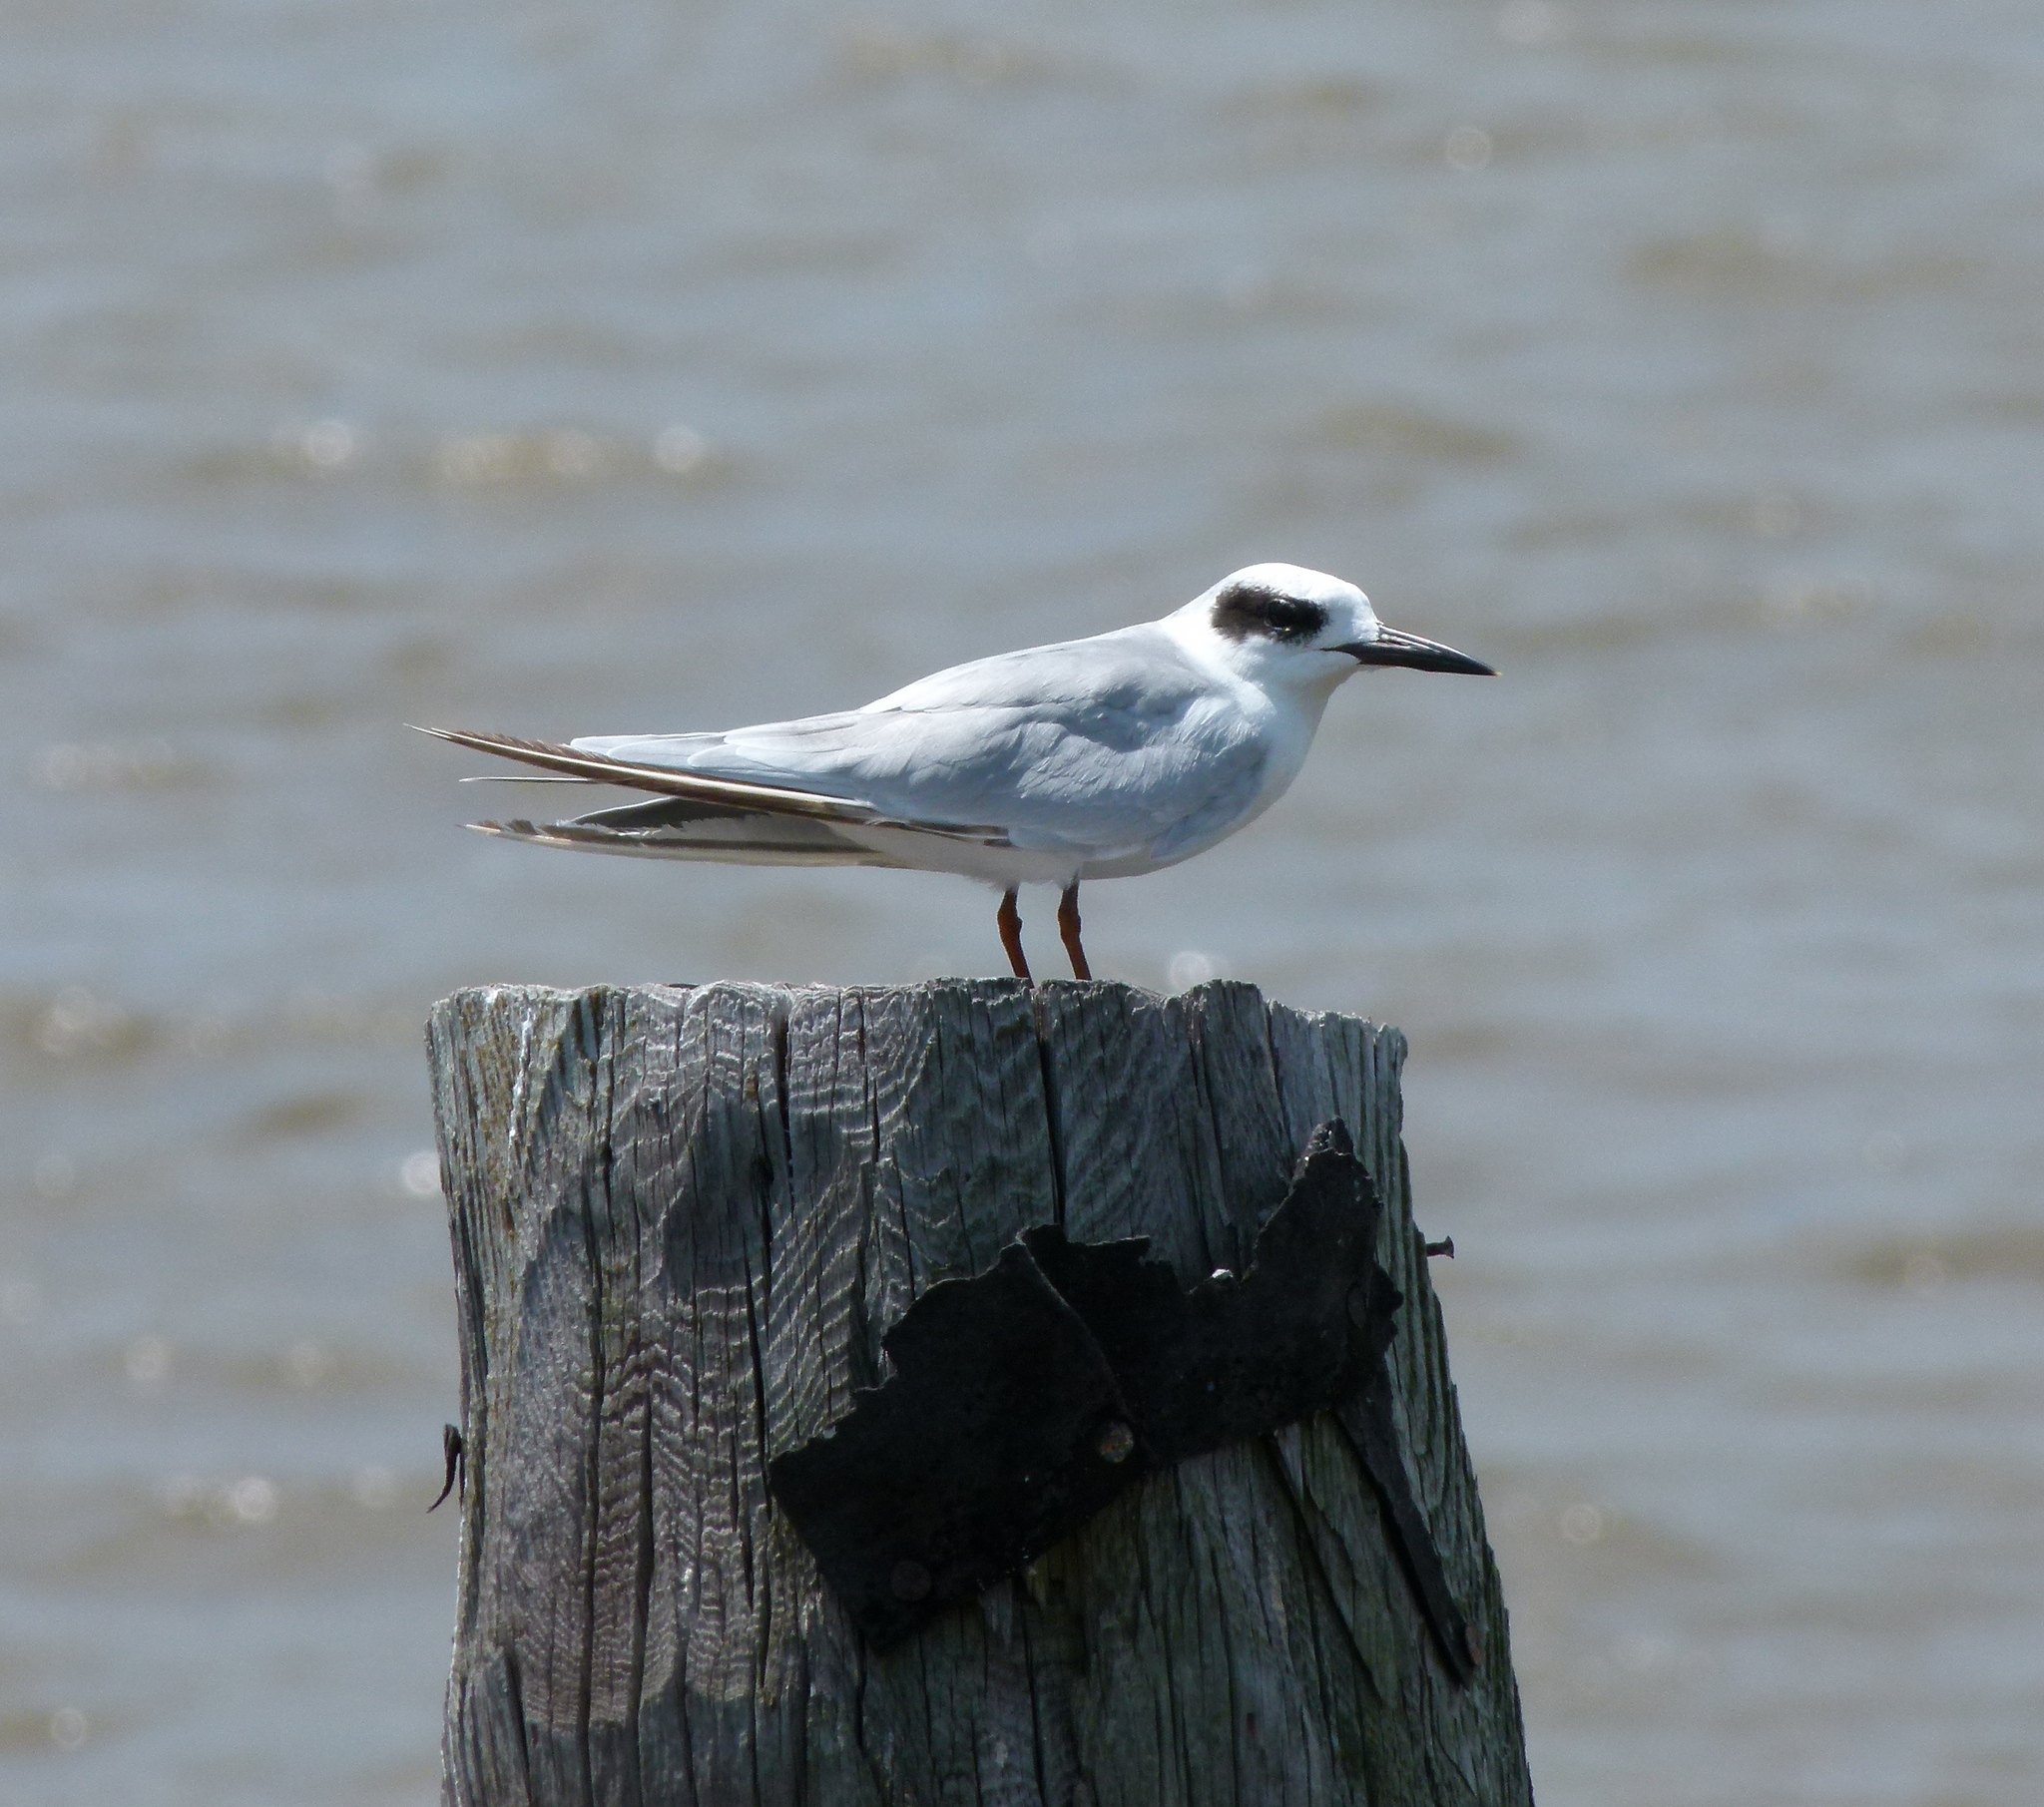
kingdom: Animalia
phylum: Chordata
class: Aves
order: Charadriiformes
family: Laridae
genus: Sterna
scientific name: Sterna forsteri
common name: Forster's tern
